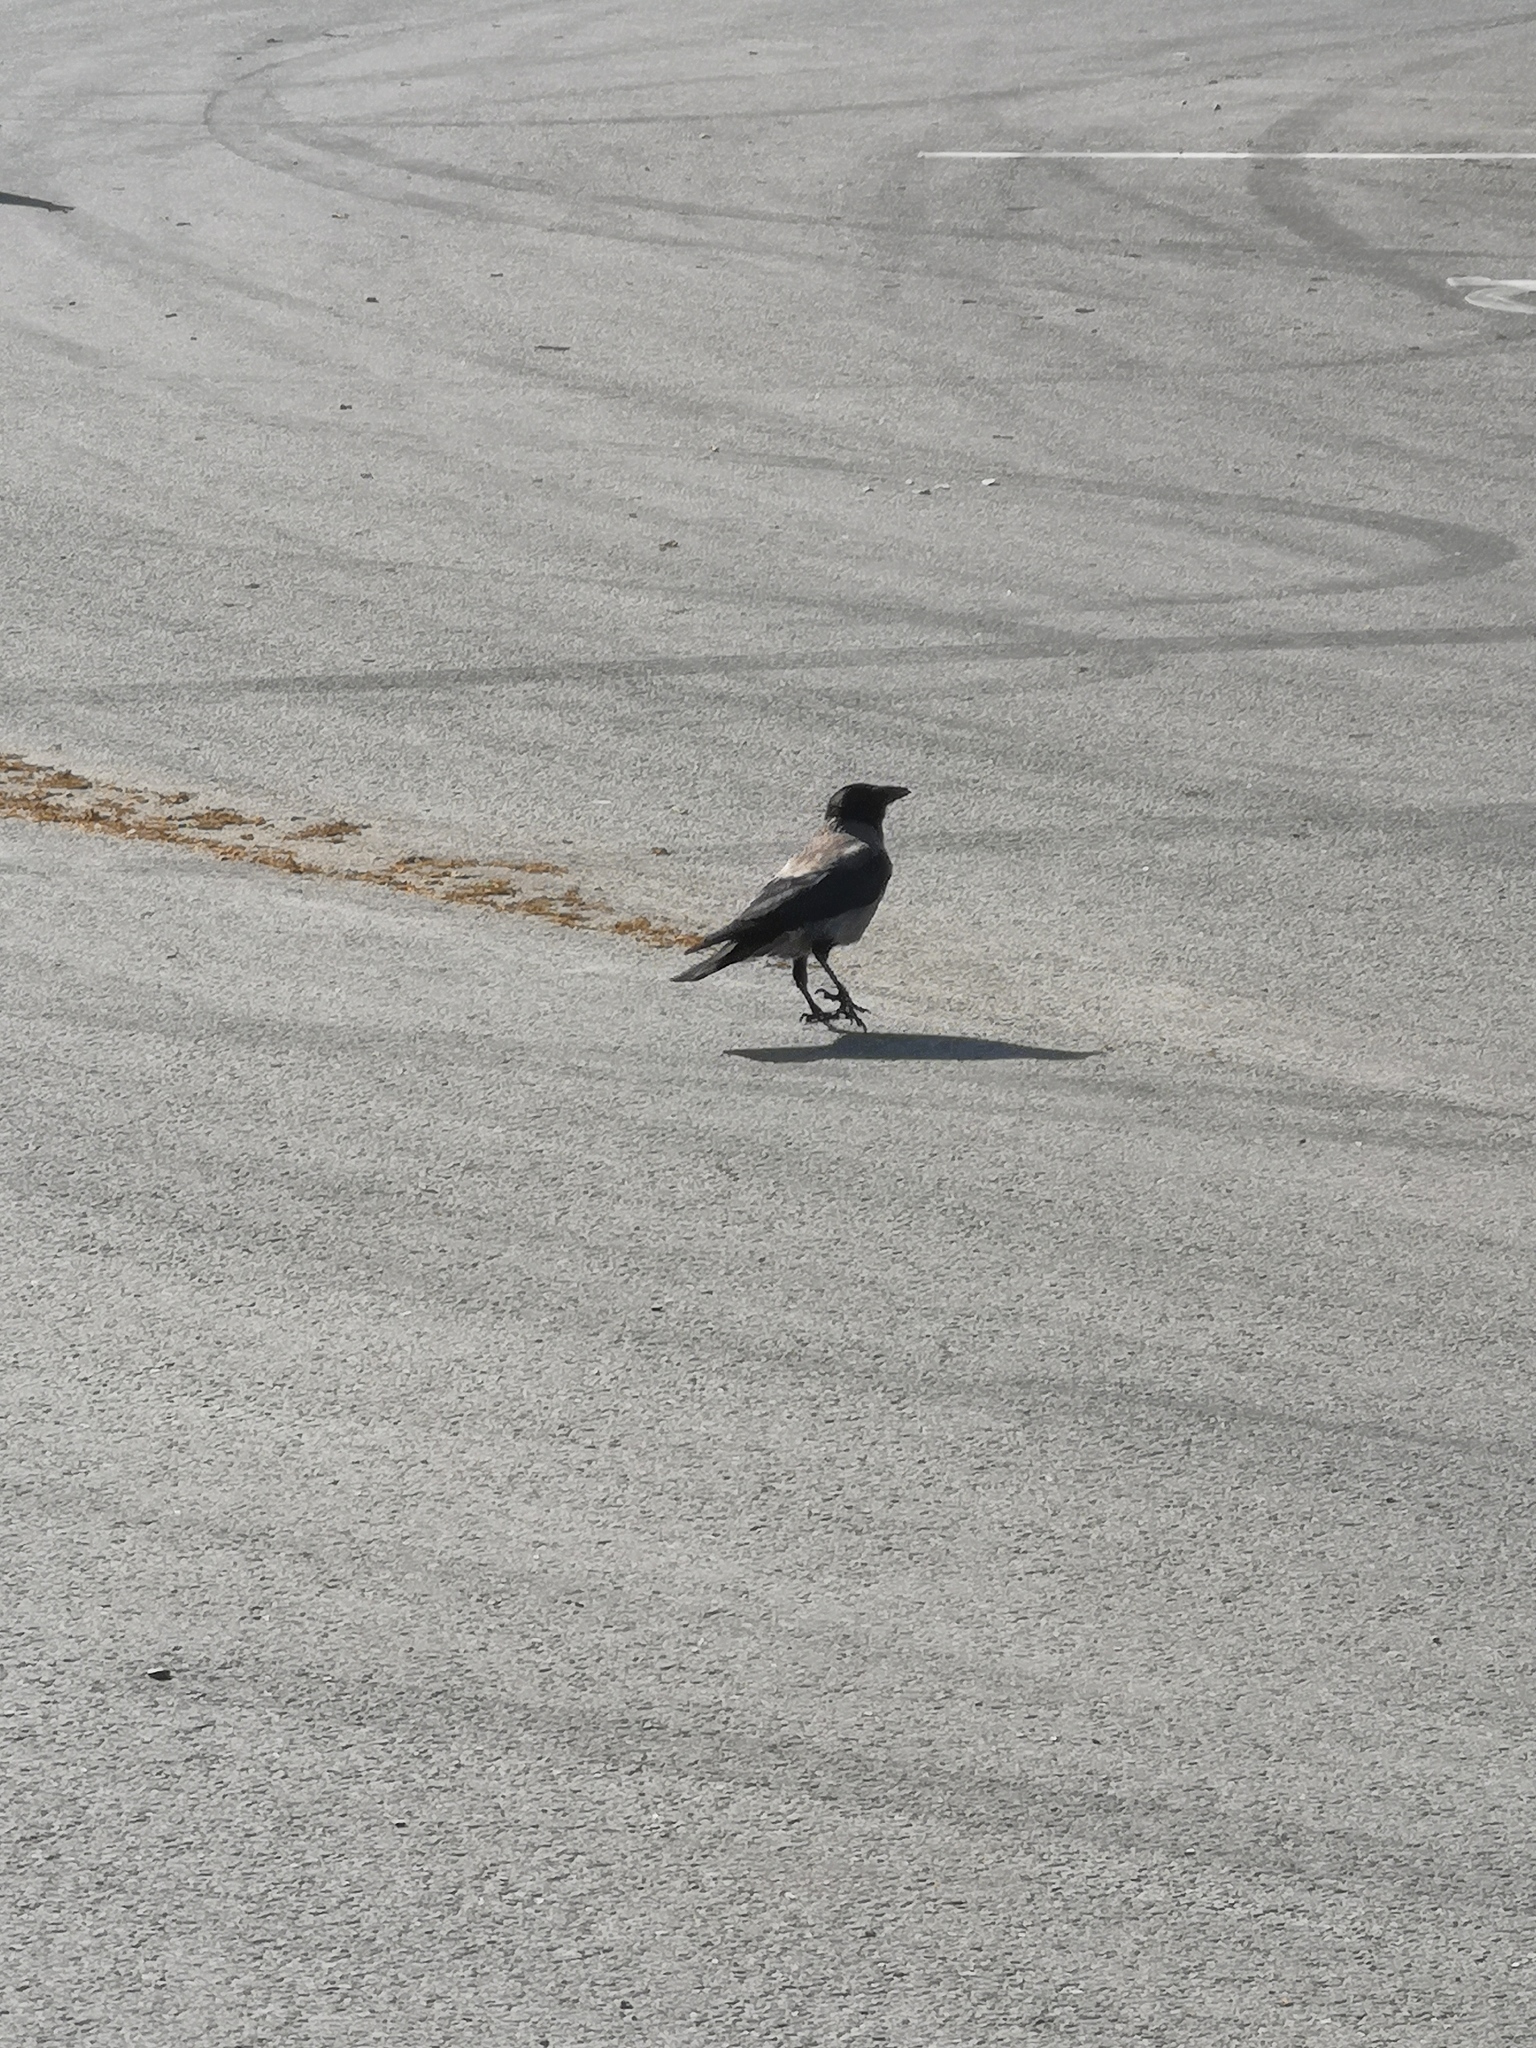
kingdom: Animalia
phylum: Chordata
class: Aves
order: Passeriformes
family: Corvidae
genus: Corvus
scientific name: Corvus cornix
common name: Hooded crow
